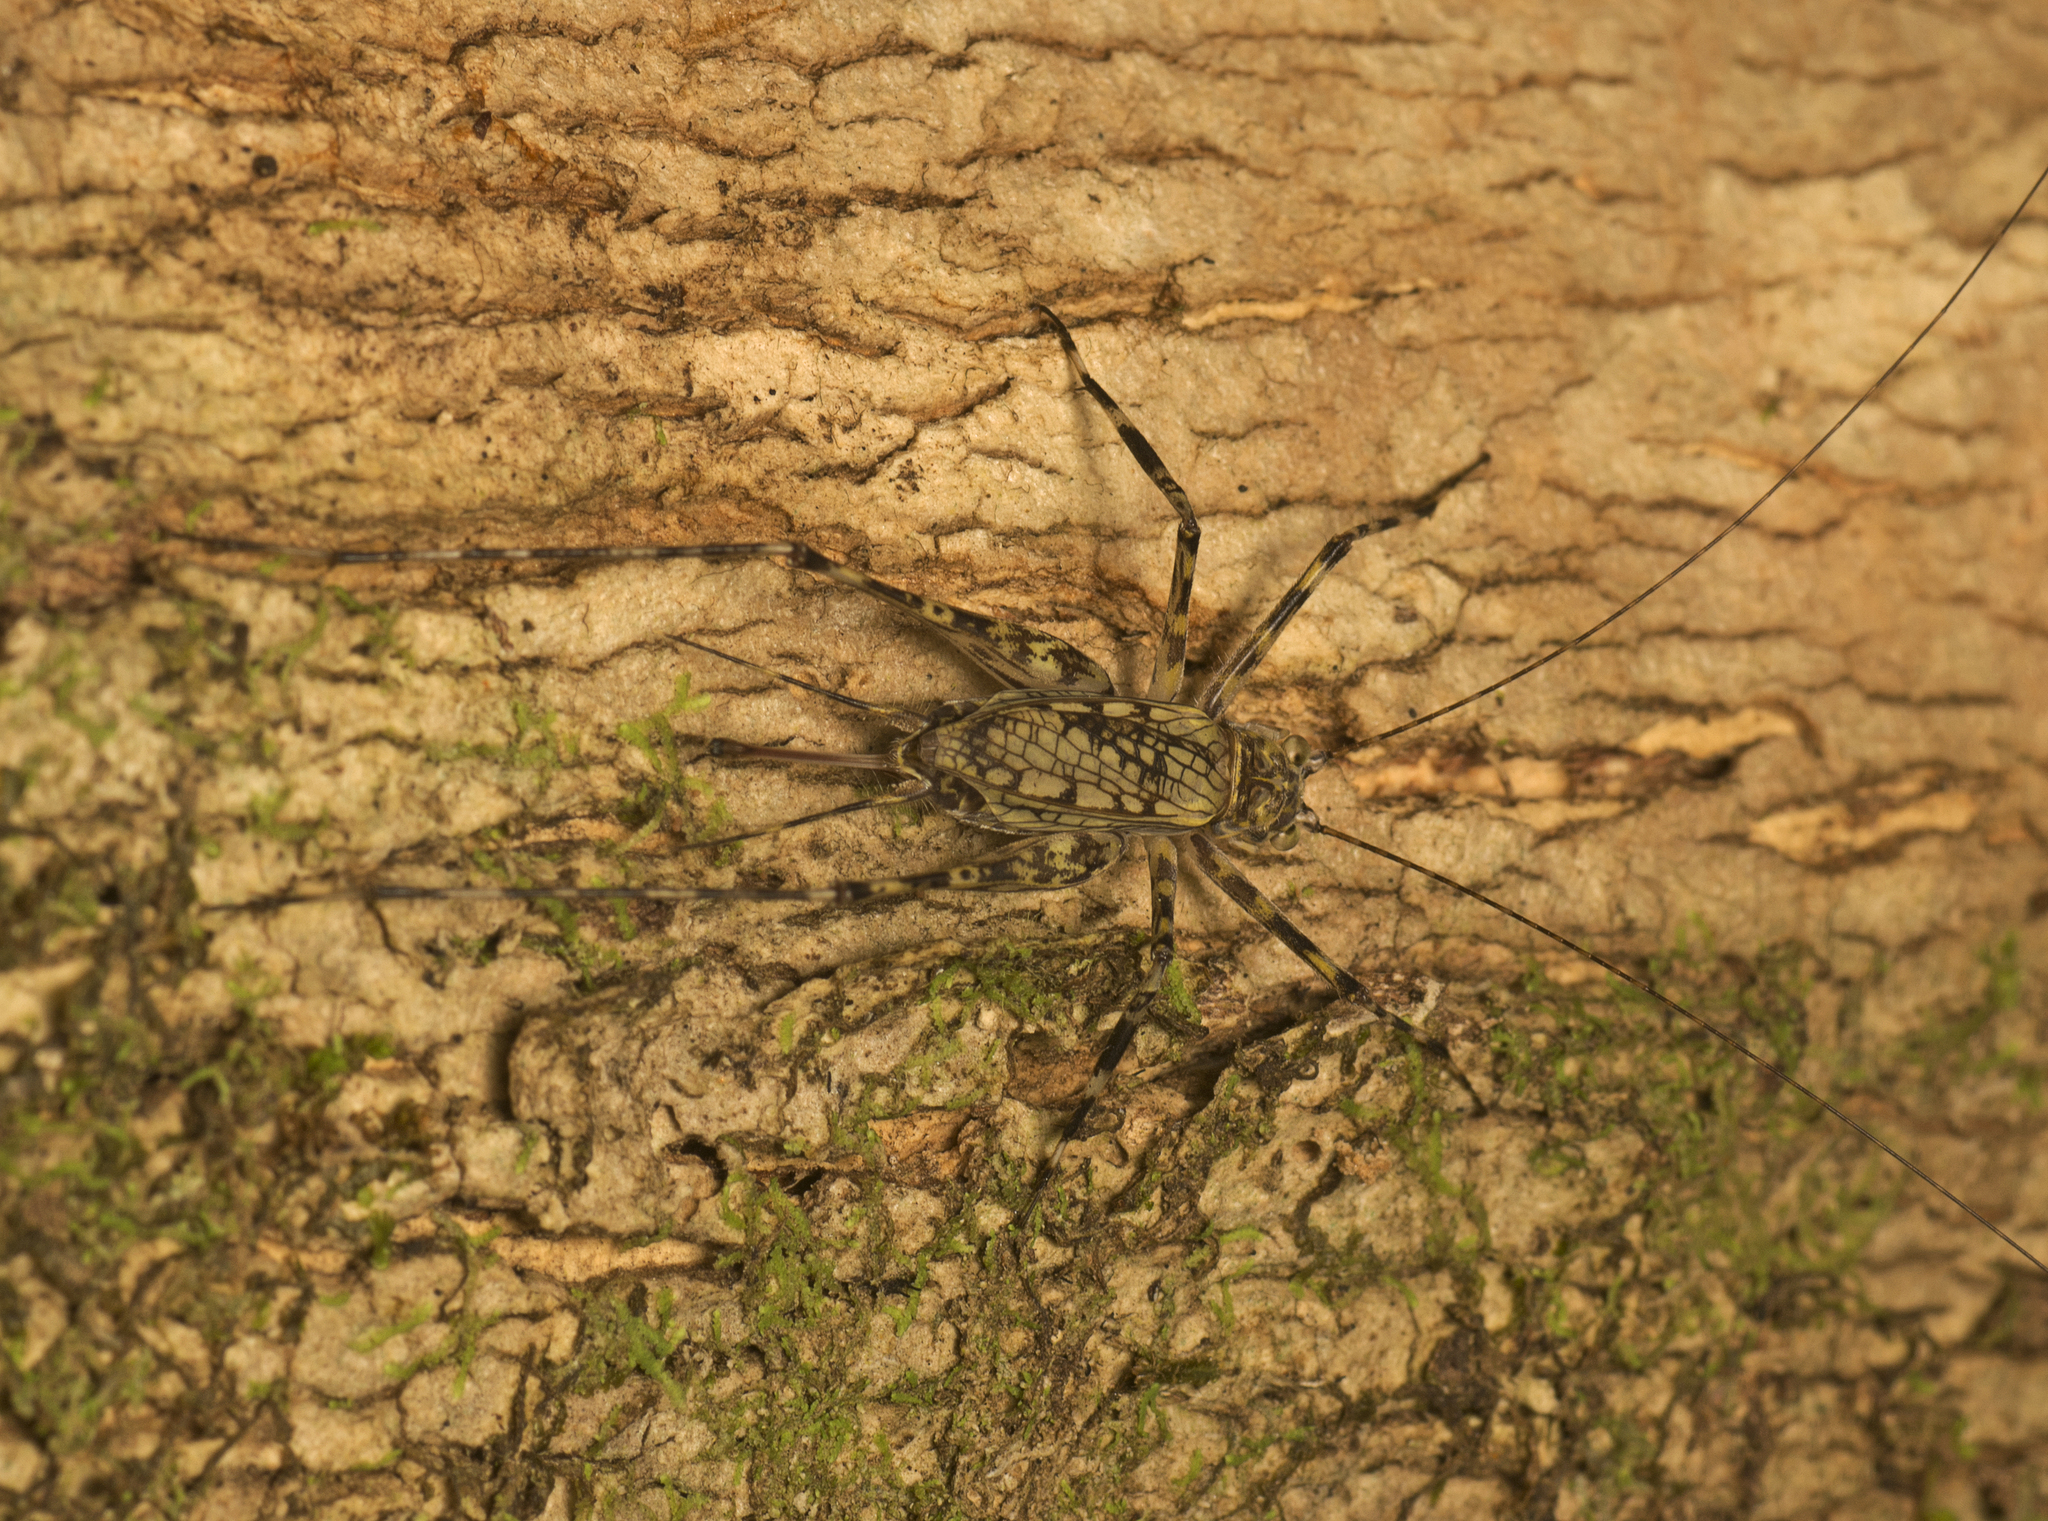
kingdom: Animalia
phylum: Arthropoda
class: Insecta
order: Orthoptera
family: Phalangopsidae
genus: Pseudotrigonidium
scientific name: Pseudotrigonidium australis
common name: Kuranda tree runner
